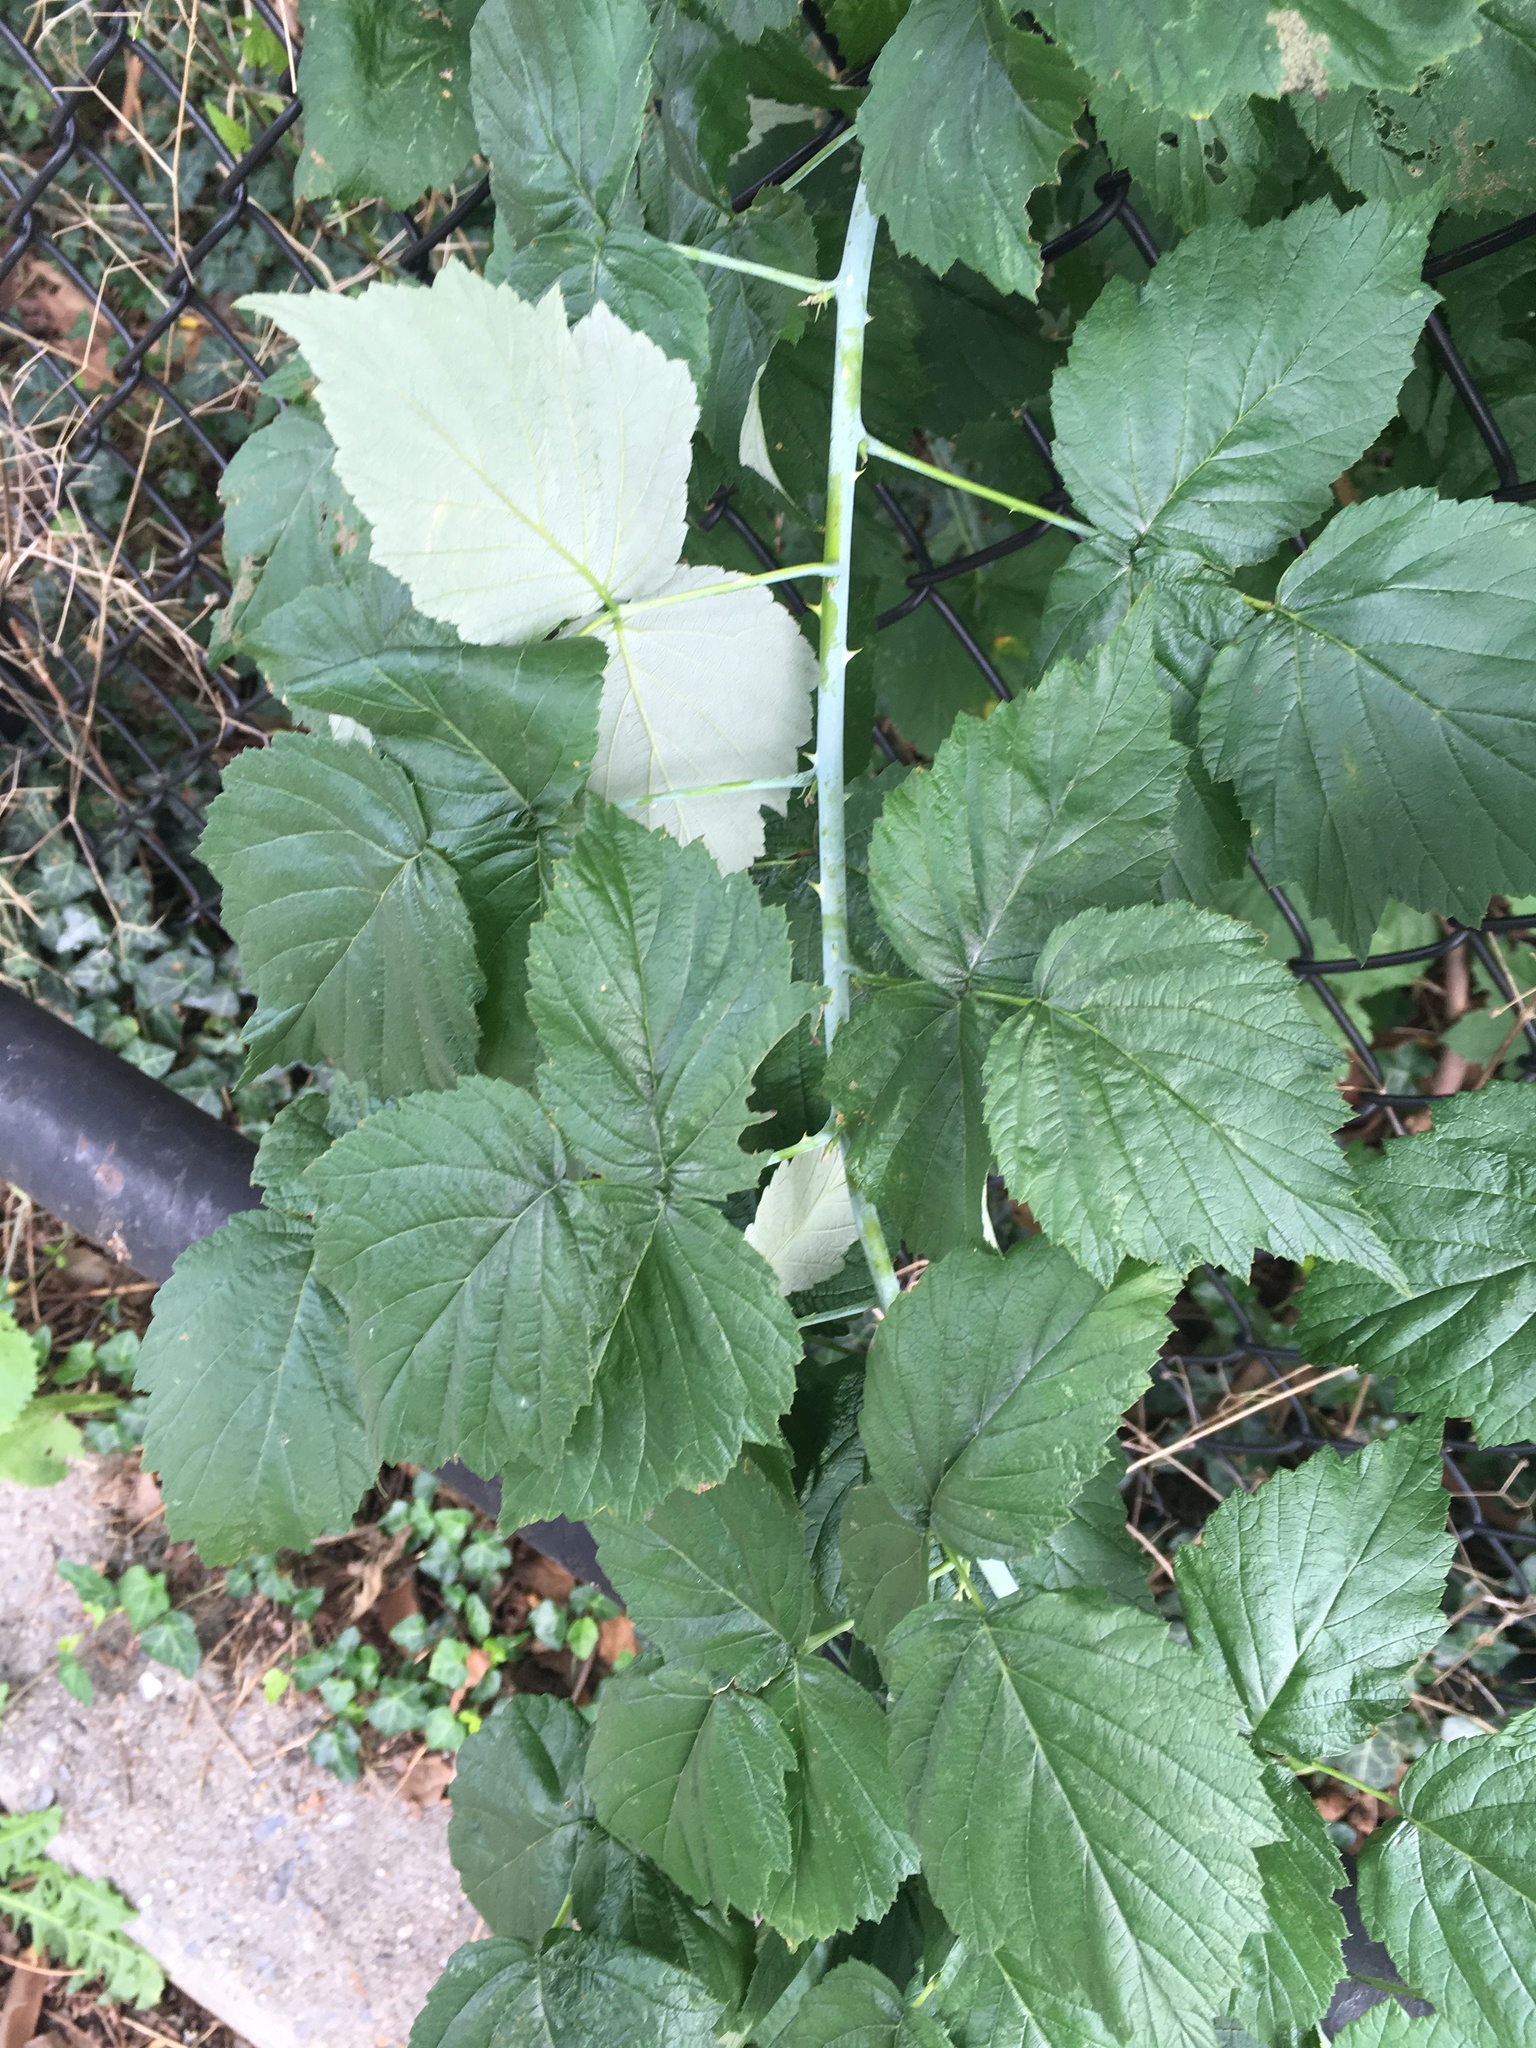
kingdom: Plantae
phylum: Tracheophyta
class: Magnoliopsida
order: Rosales
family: Rosaceae
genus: Rubus
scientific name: Rubus occidentalis
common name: Black raspberry
